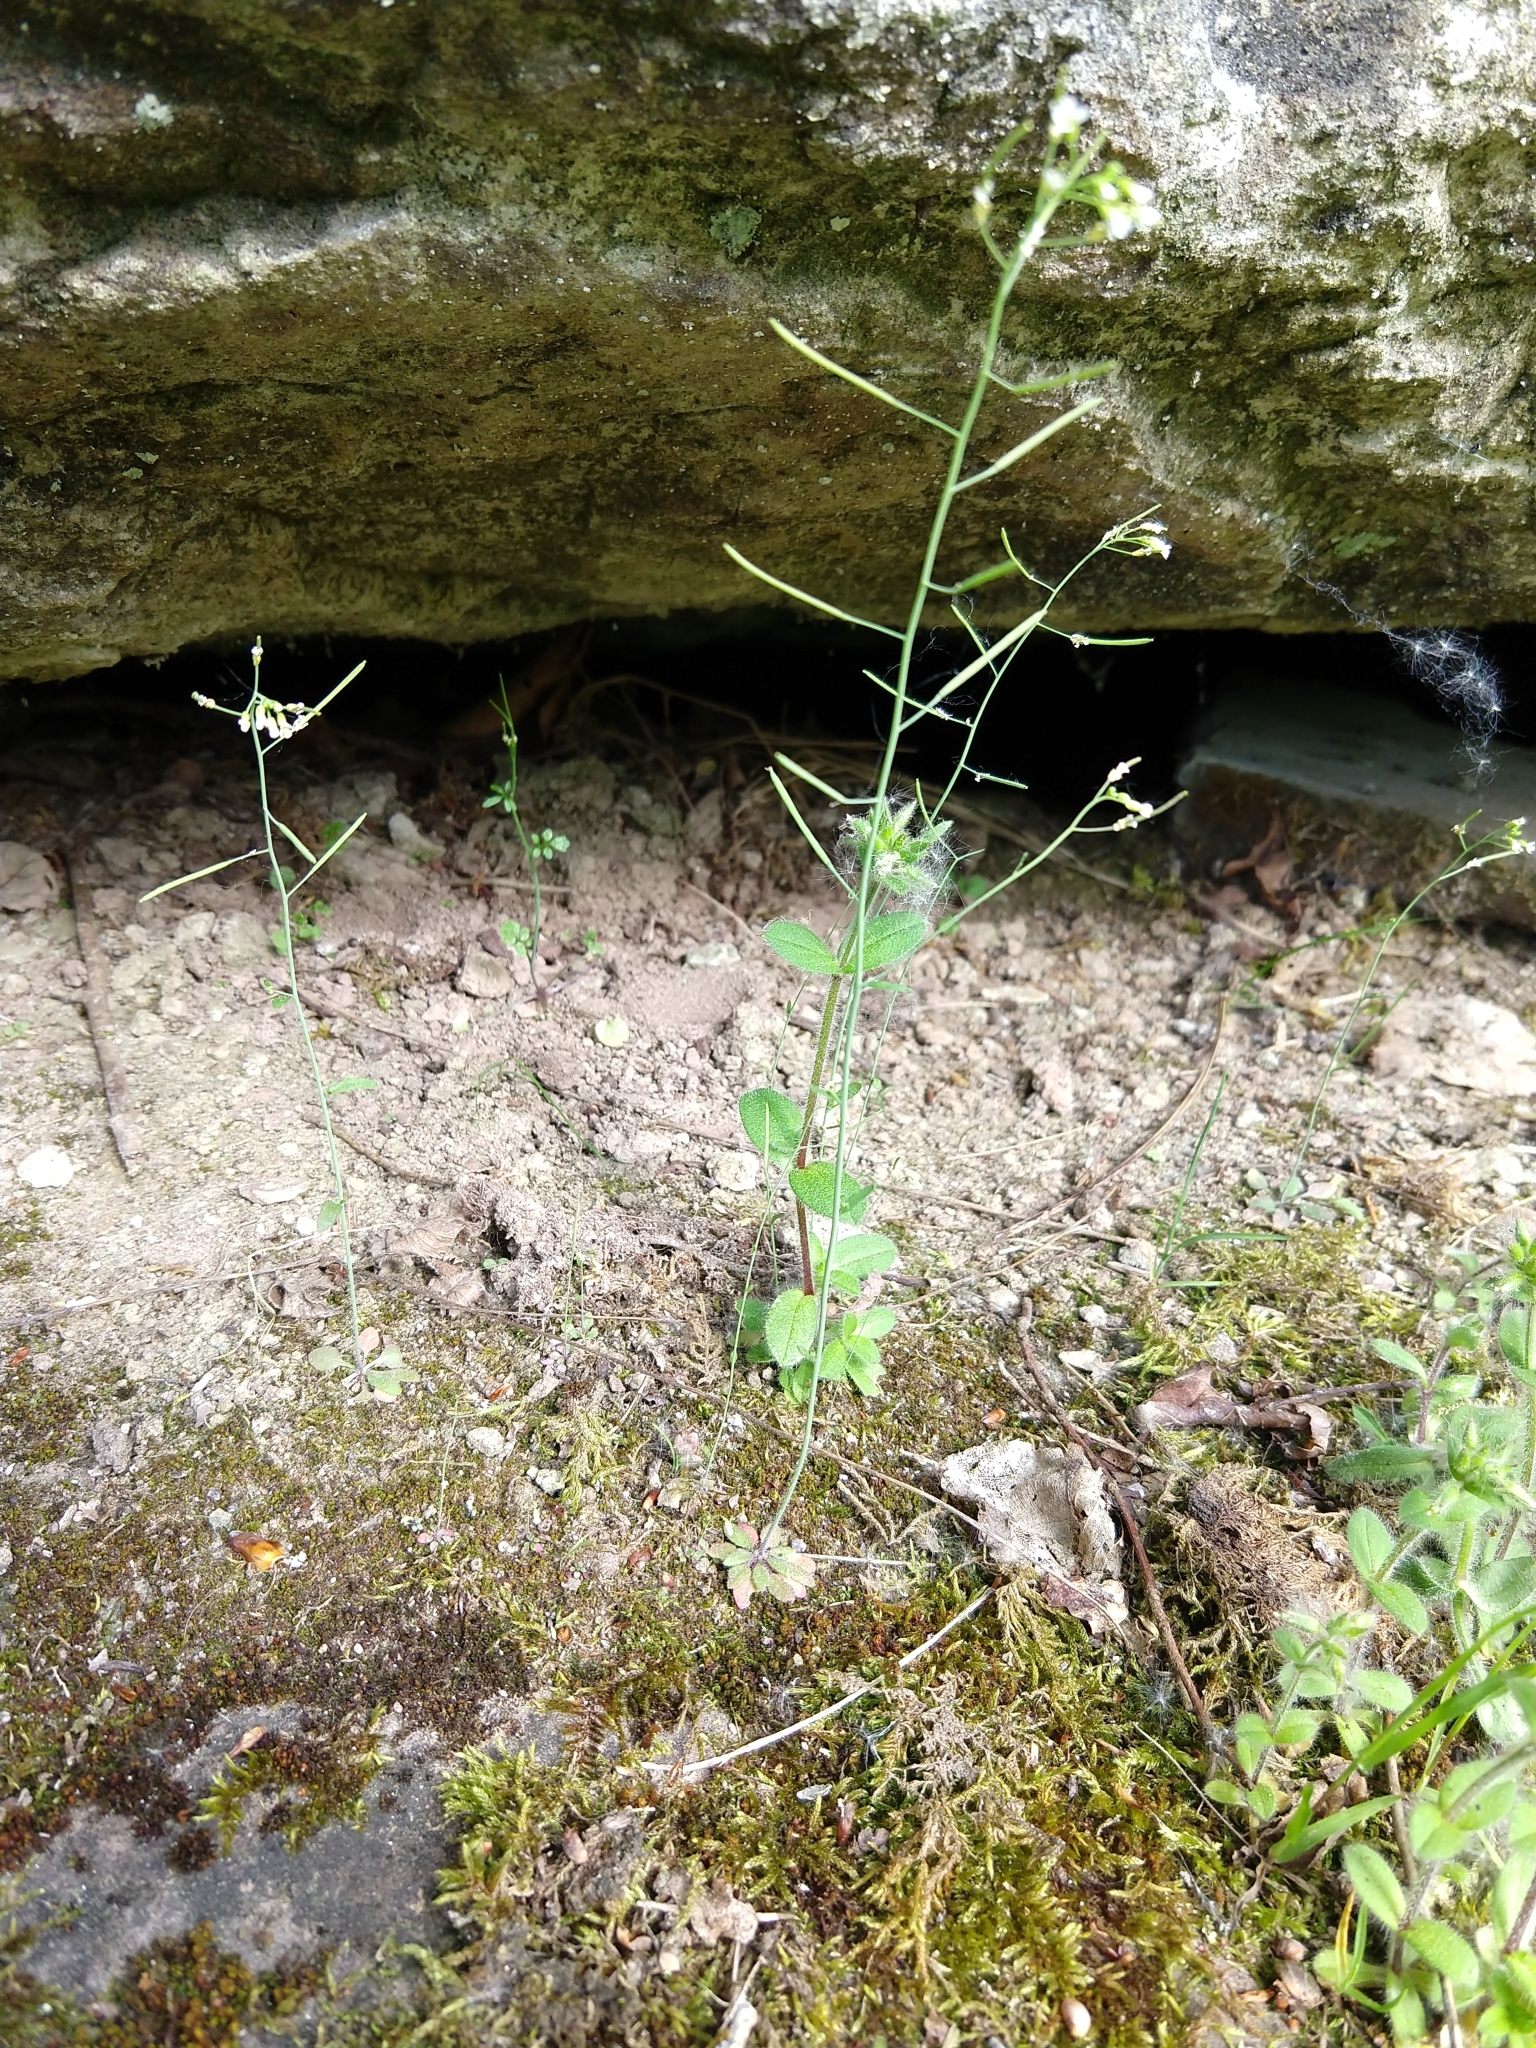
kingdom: Plantae
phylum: Tracheophyta
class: Magnoliopsida
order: Brassicales
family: Brassicaceae
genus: Arabidopsis
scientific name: Arabidopsis thaliana
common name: Thale cress
